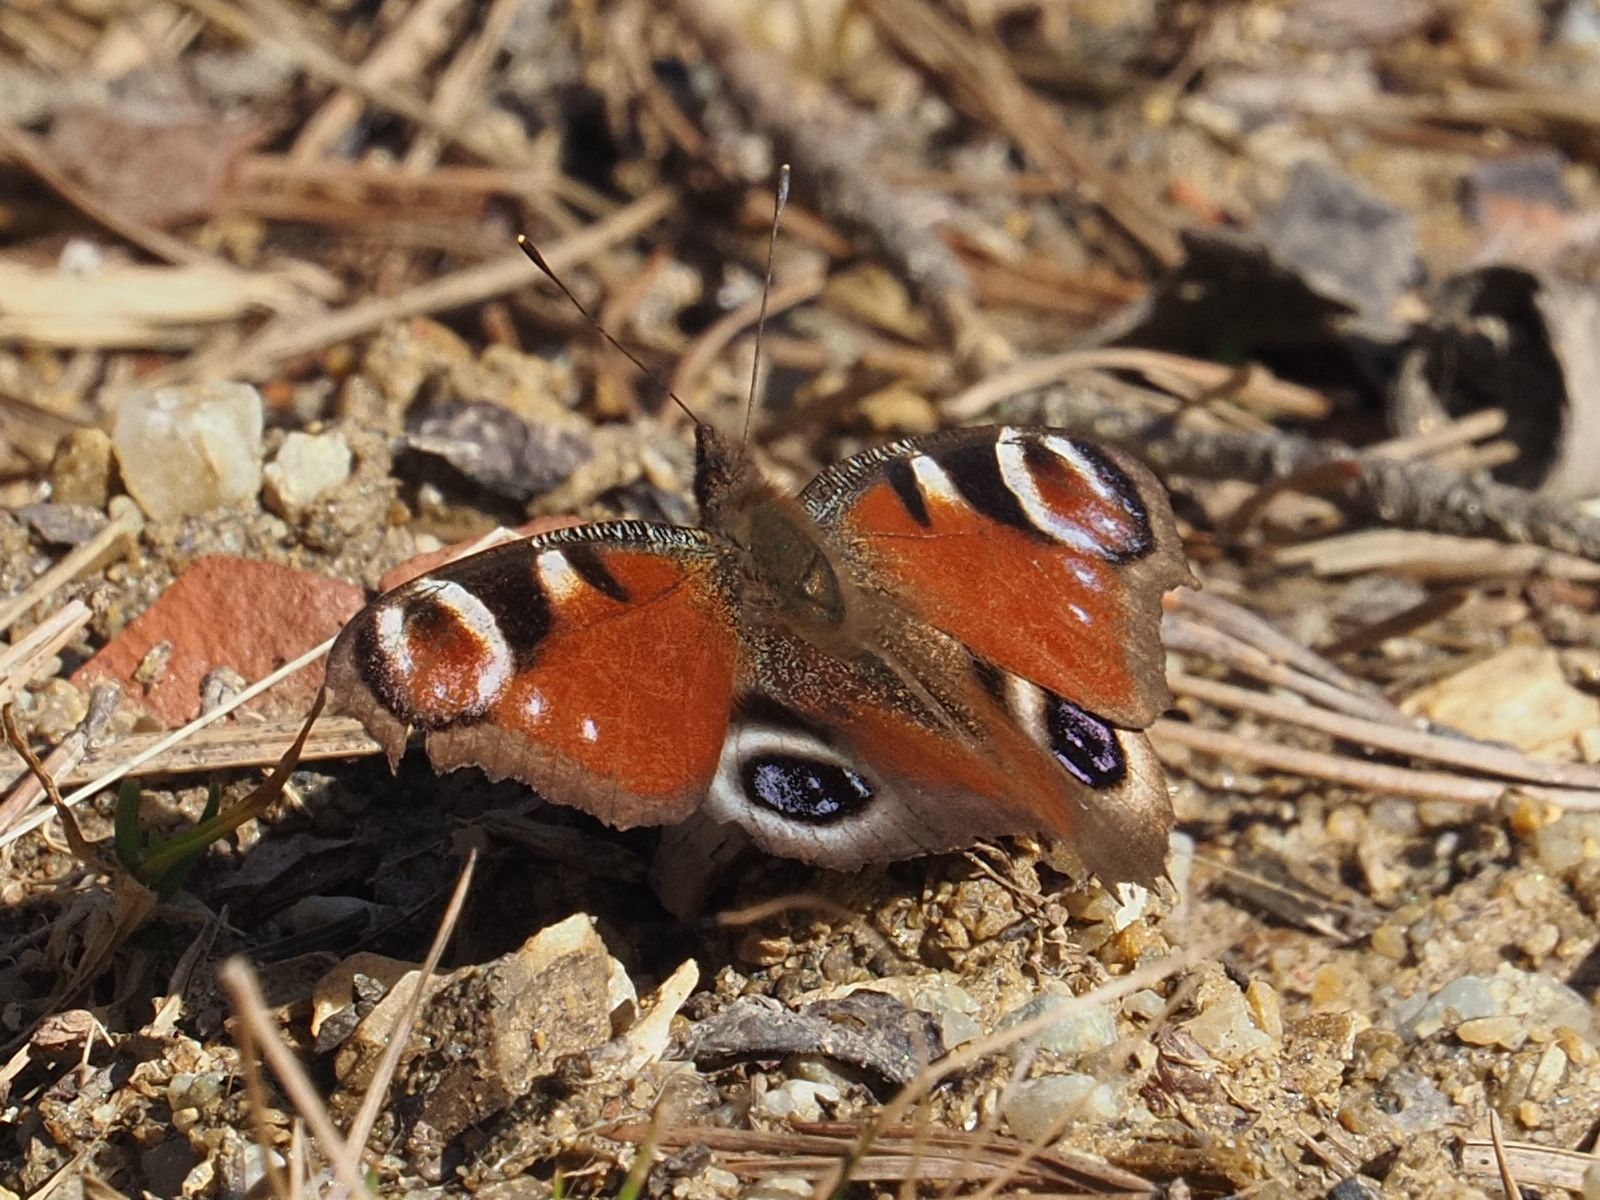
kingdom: Animalia
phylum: Arthropoda
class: Insecta
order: Lepidoptera
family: Nymphalidae
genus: Aglais
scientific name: Aglais io
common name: Peacock
